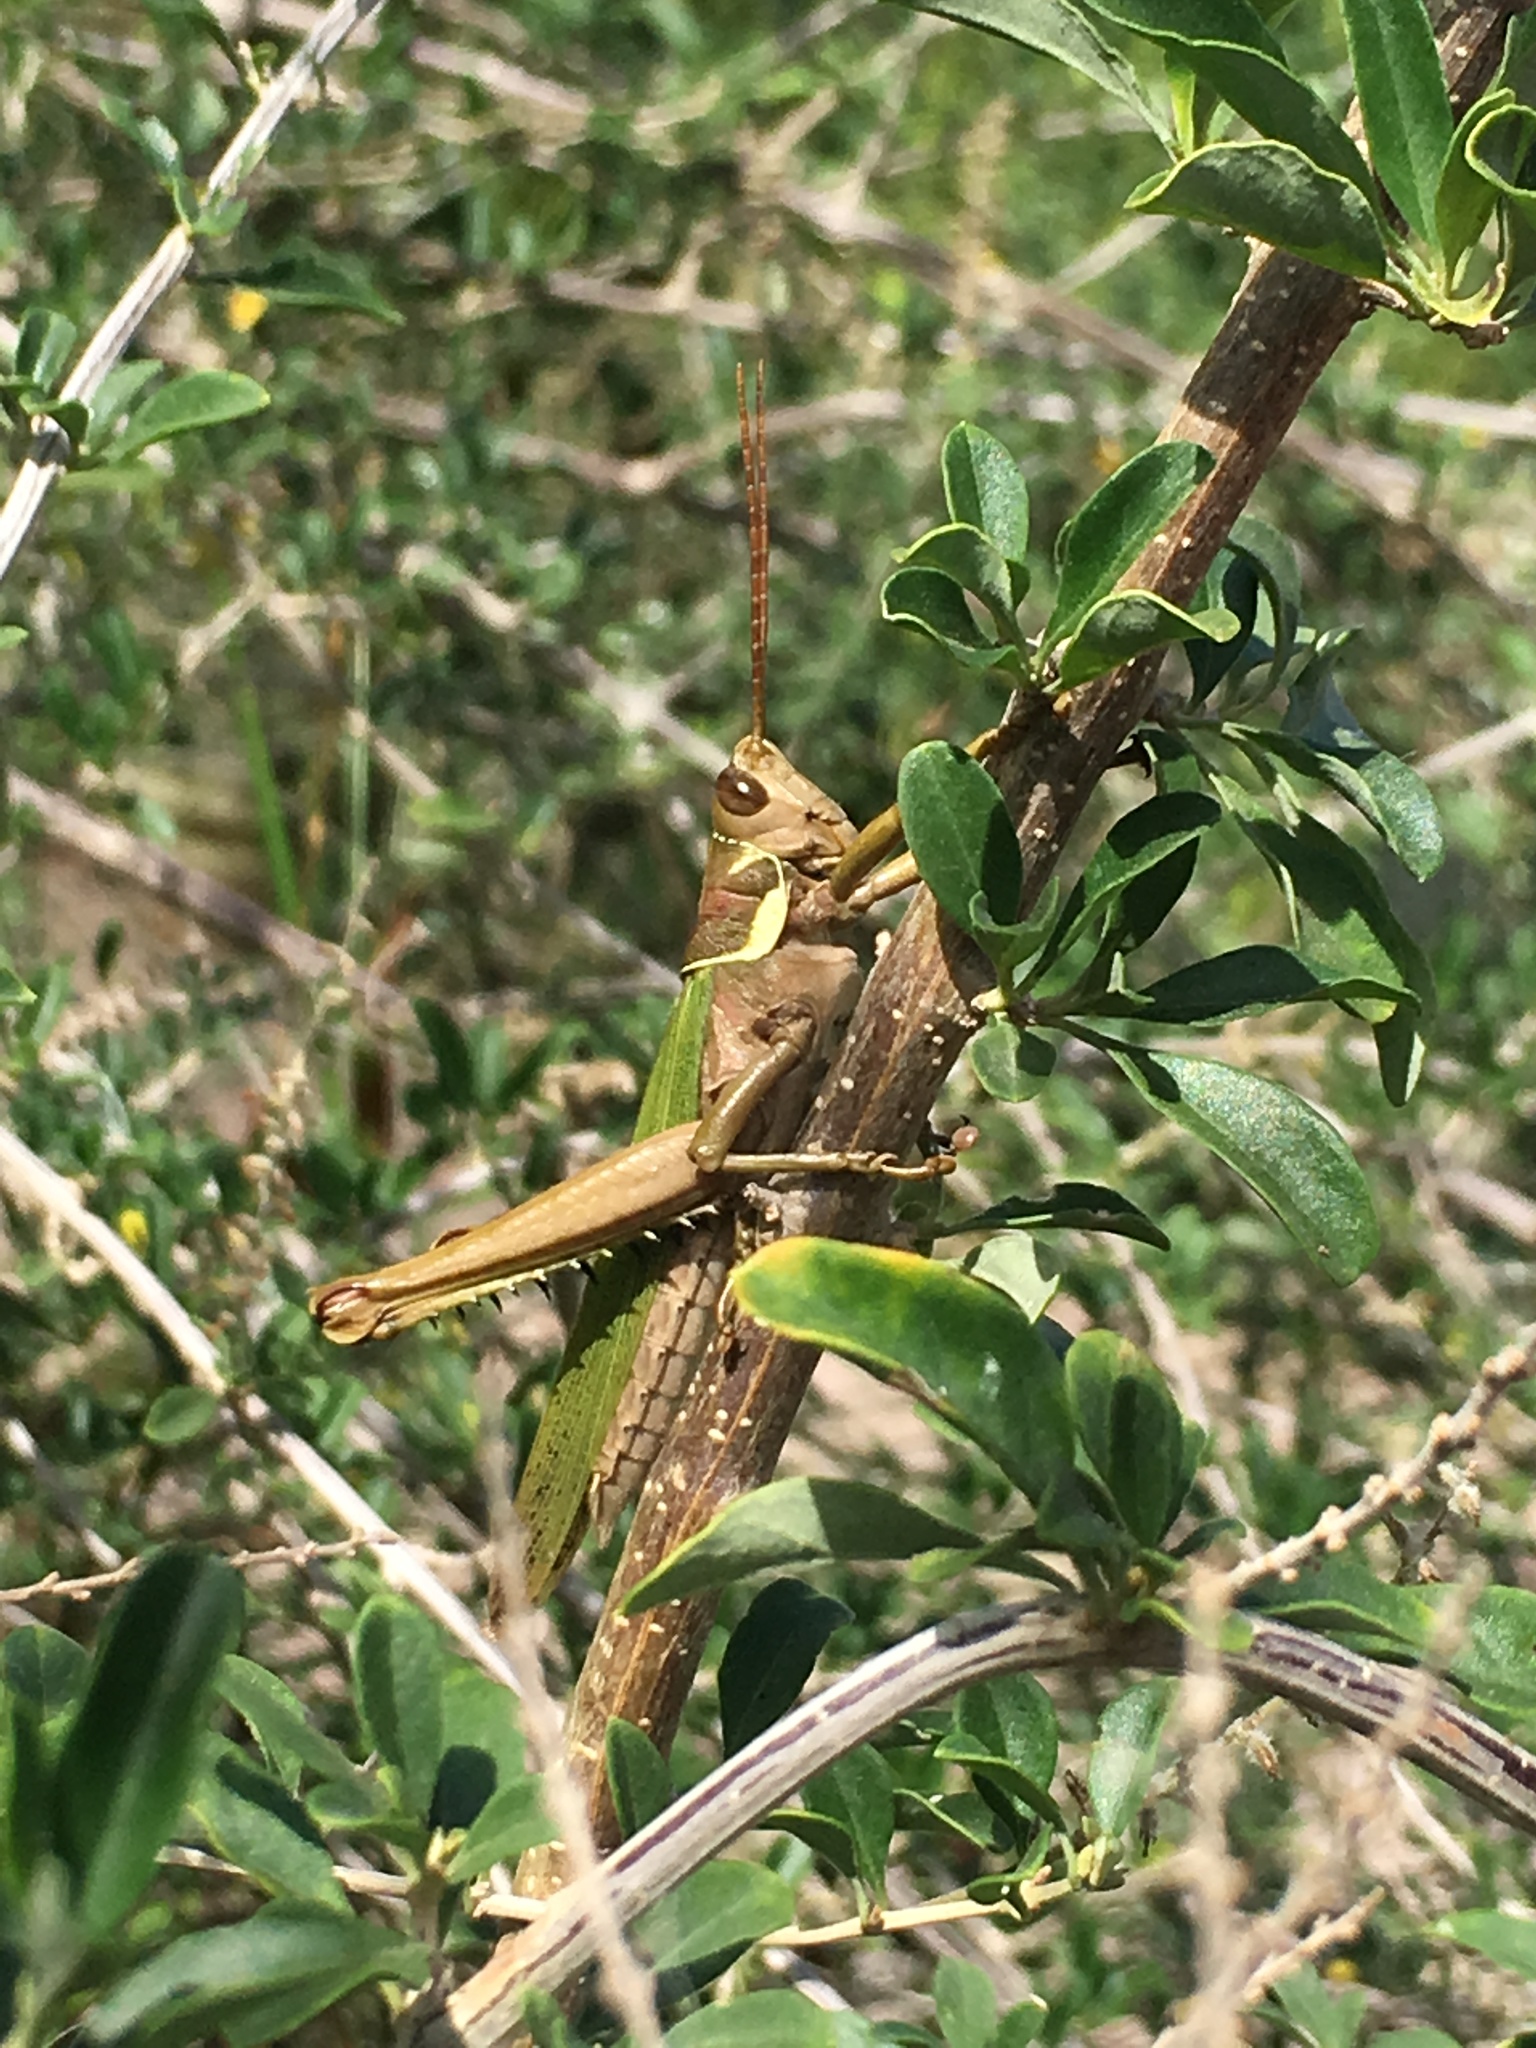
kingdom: Animalia
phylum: Arthropoda
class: Insecta
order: Orthoptera
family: Romaleidae
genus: Coryacris
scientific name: Coryacris angustipennis
